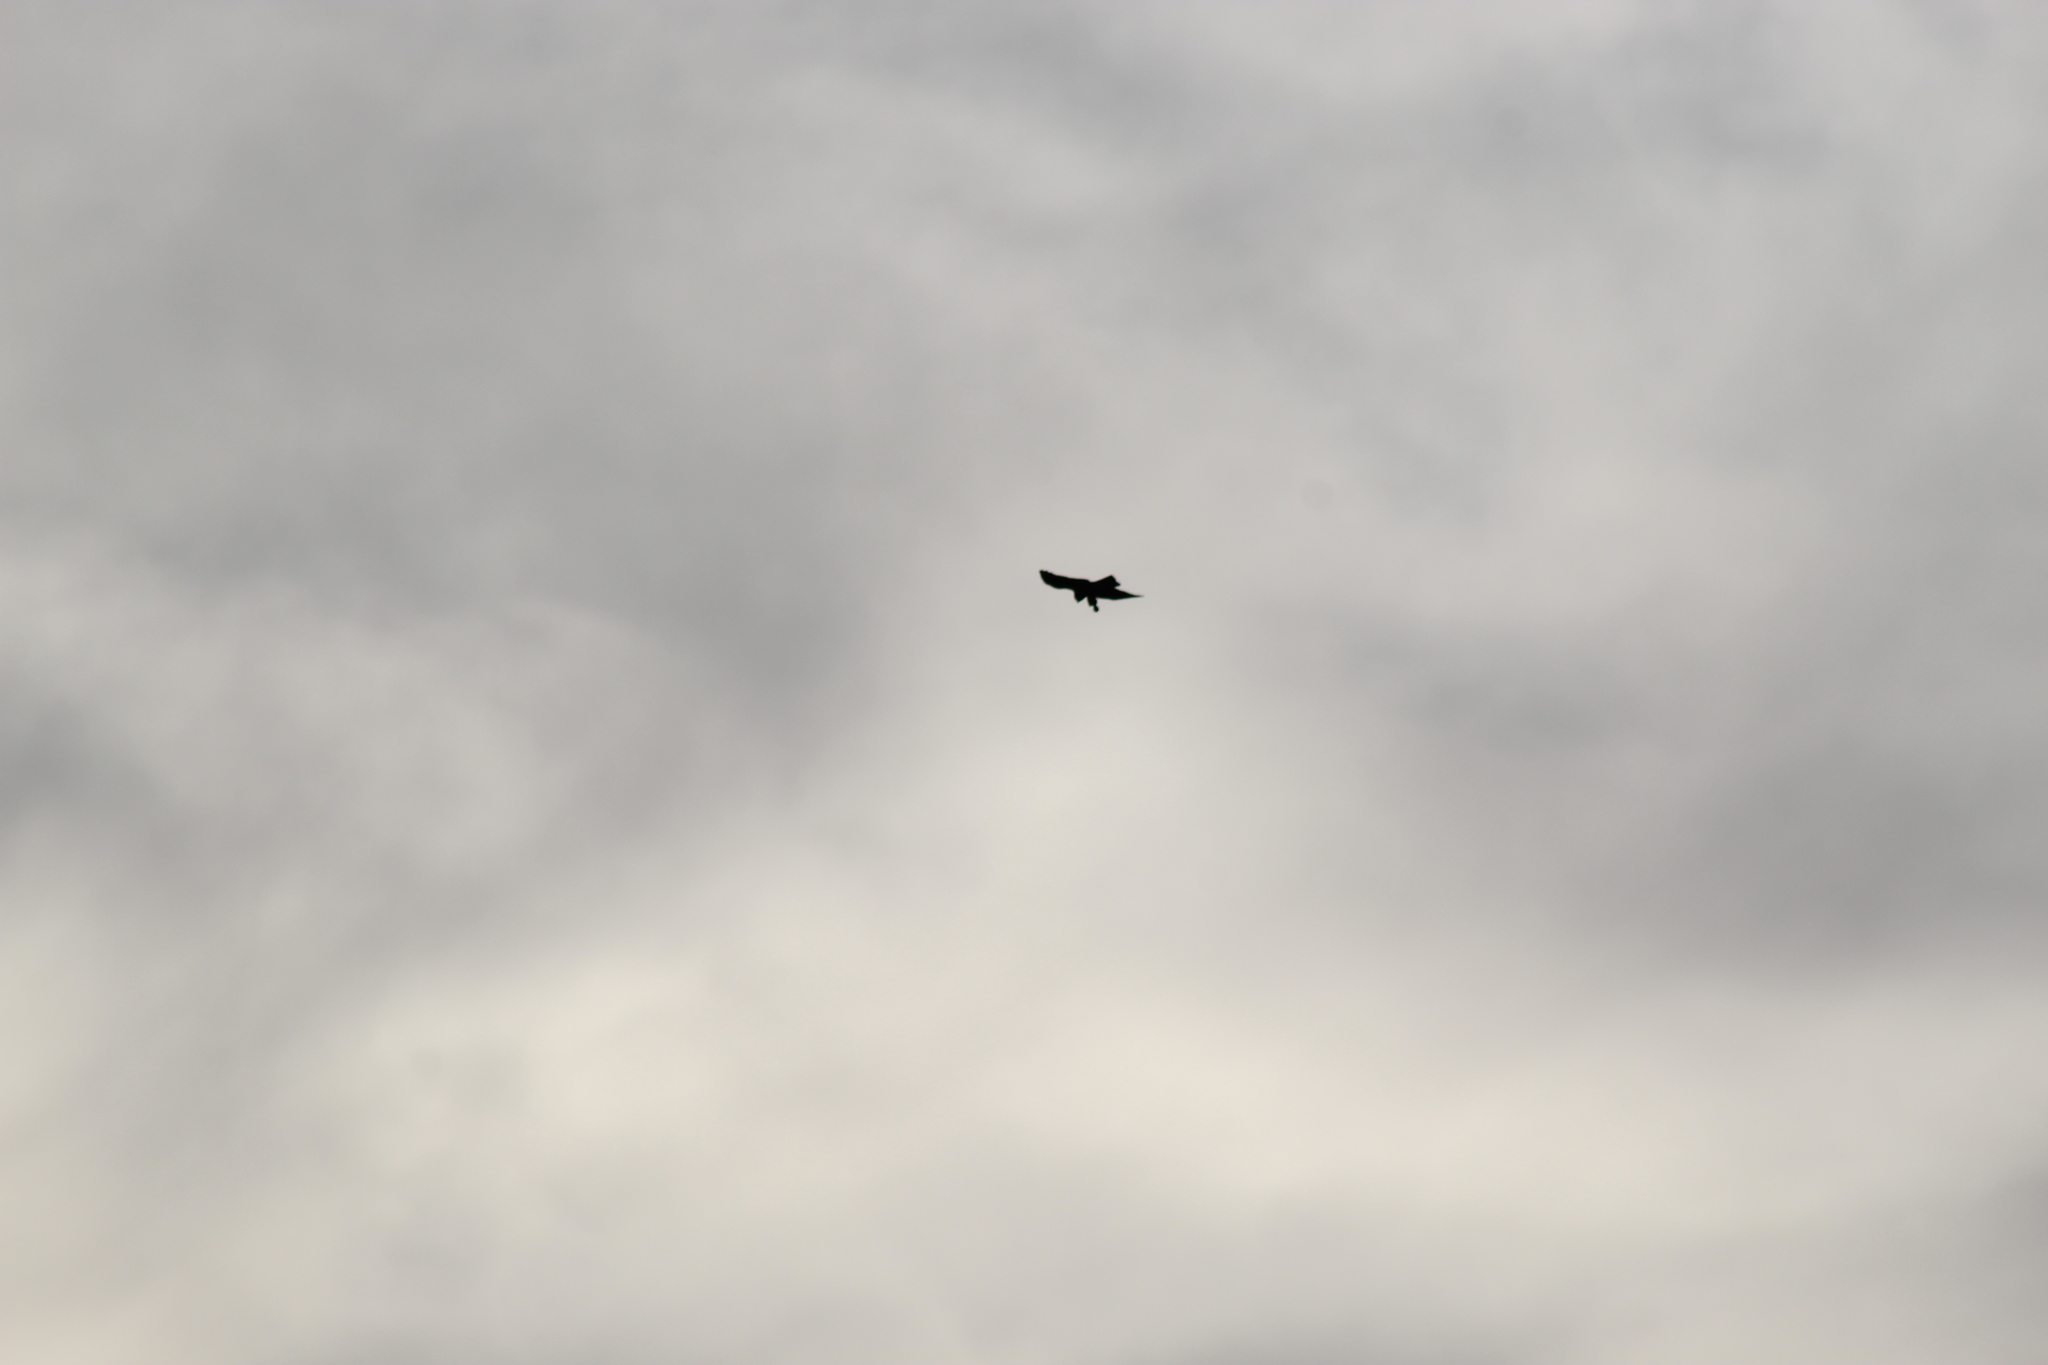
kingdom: Animalia
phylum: Chordata
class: Aves
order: Accipitriformes
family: Accipitridae
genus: Accipiter
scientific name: Accipiter rufiventris
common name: Rufous-breasted sparrowhawk
